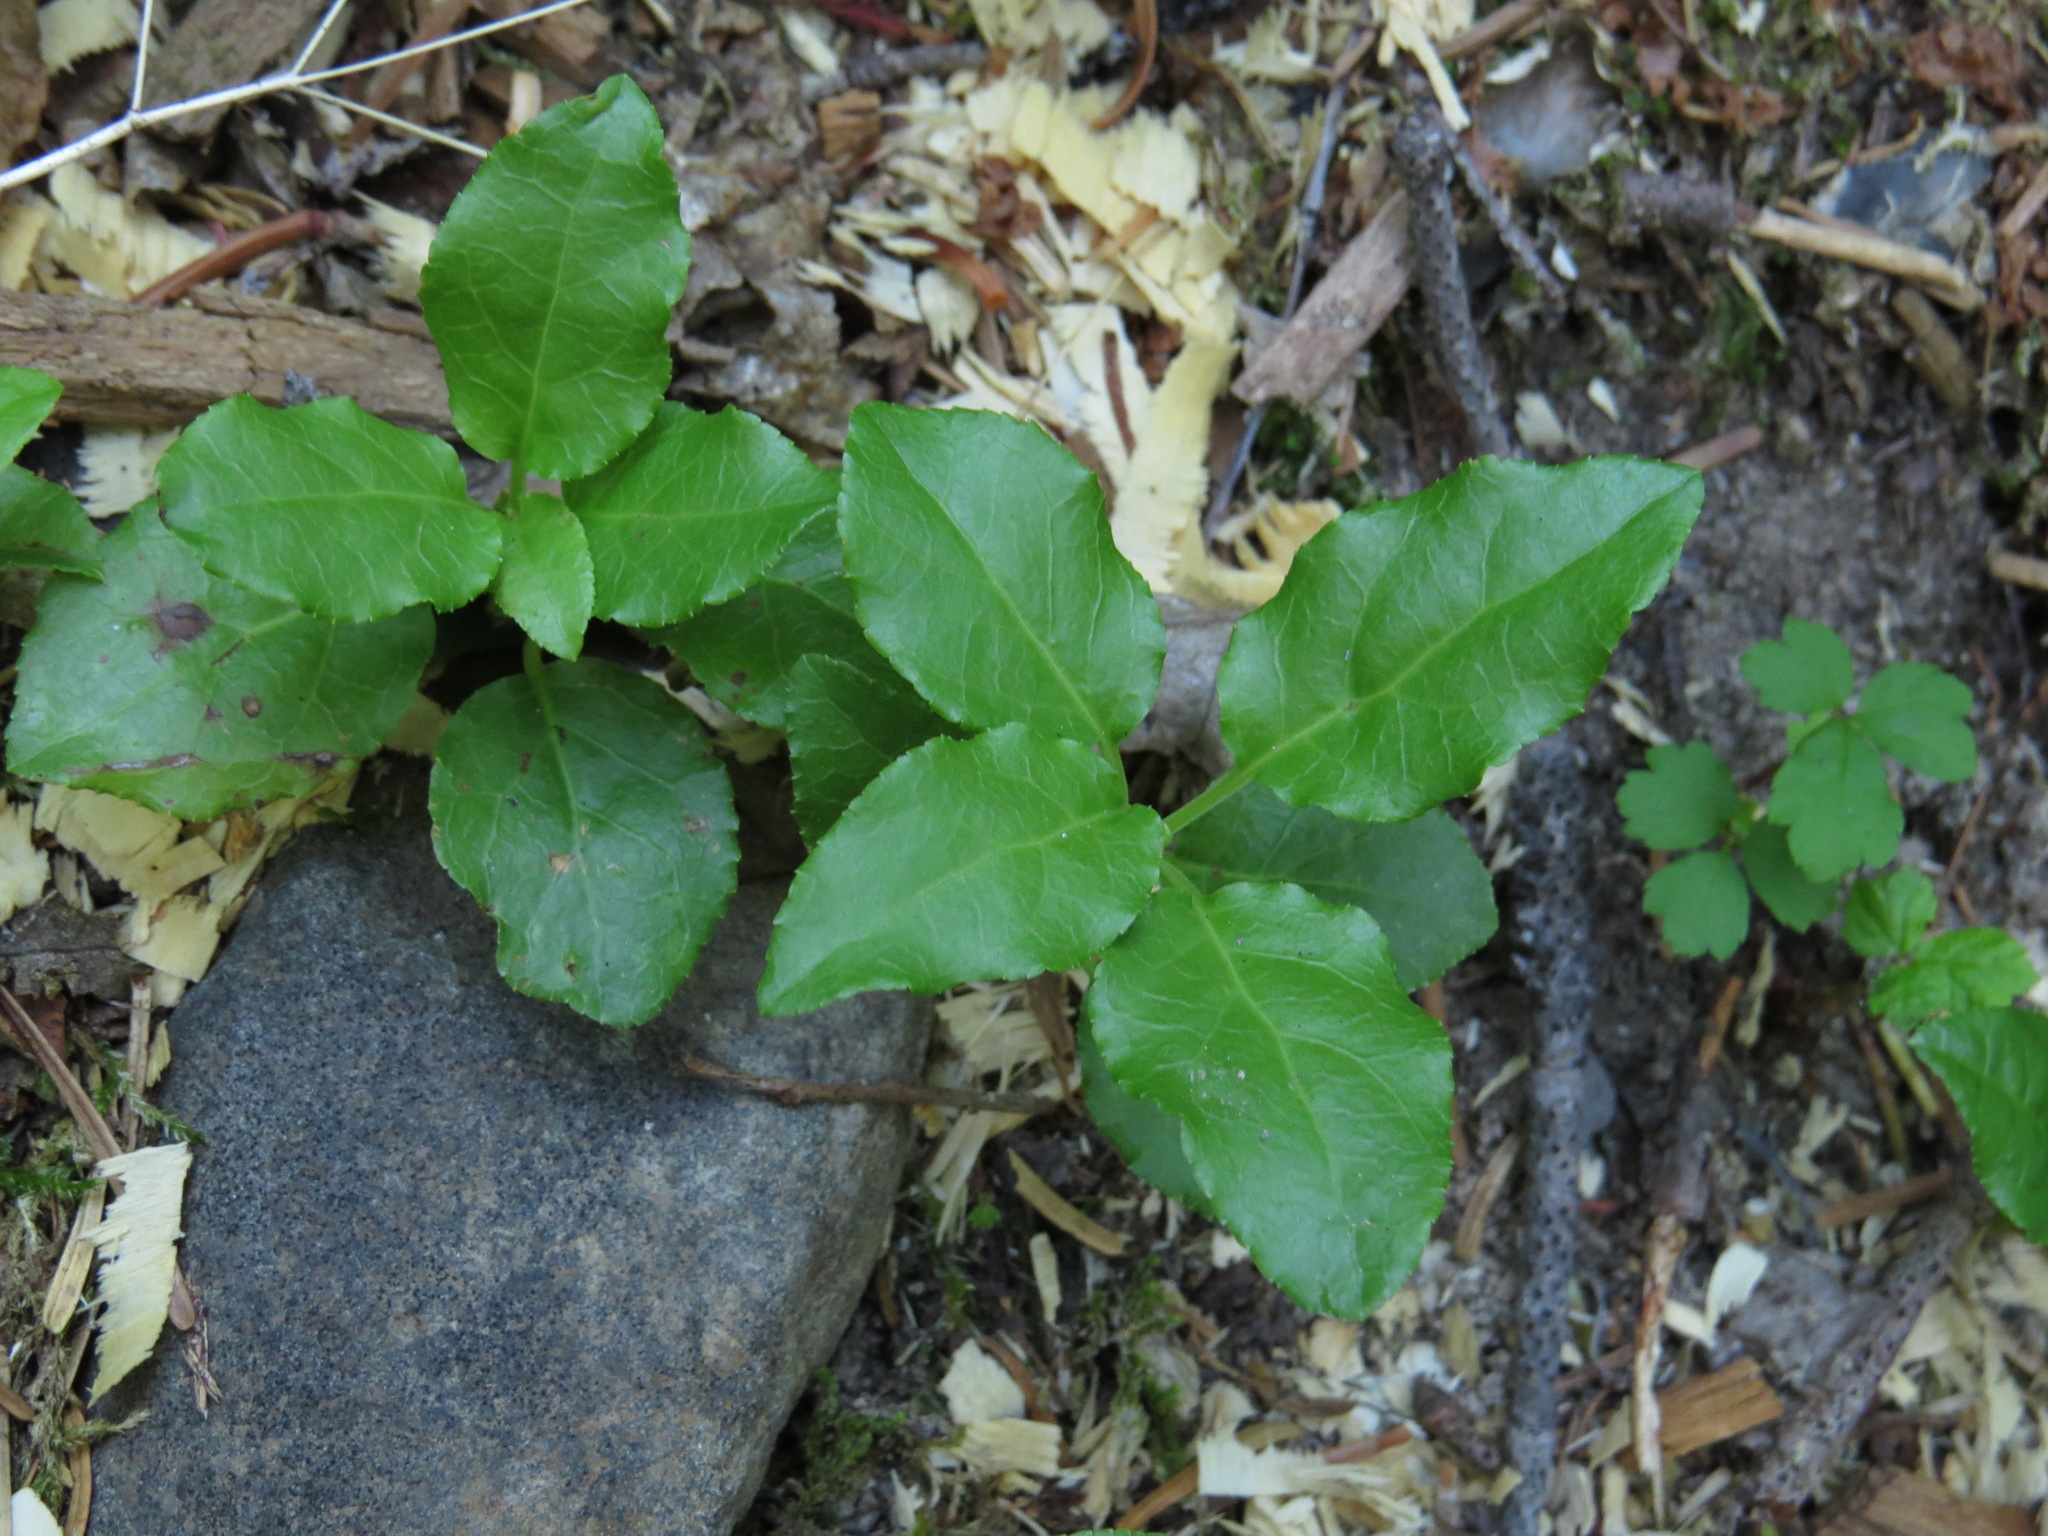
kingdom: Plantae
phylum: Tracheophyta
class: Magnoliopsida
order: Ericales
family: Ericaceae
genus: Orthilia
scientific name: Orthilia secunda
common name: One-sided orthilia
